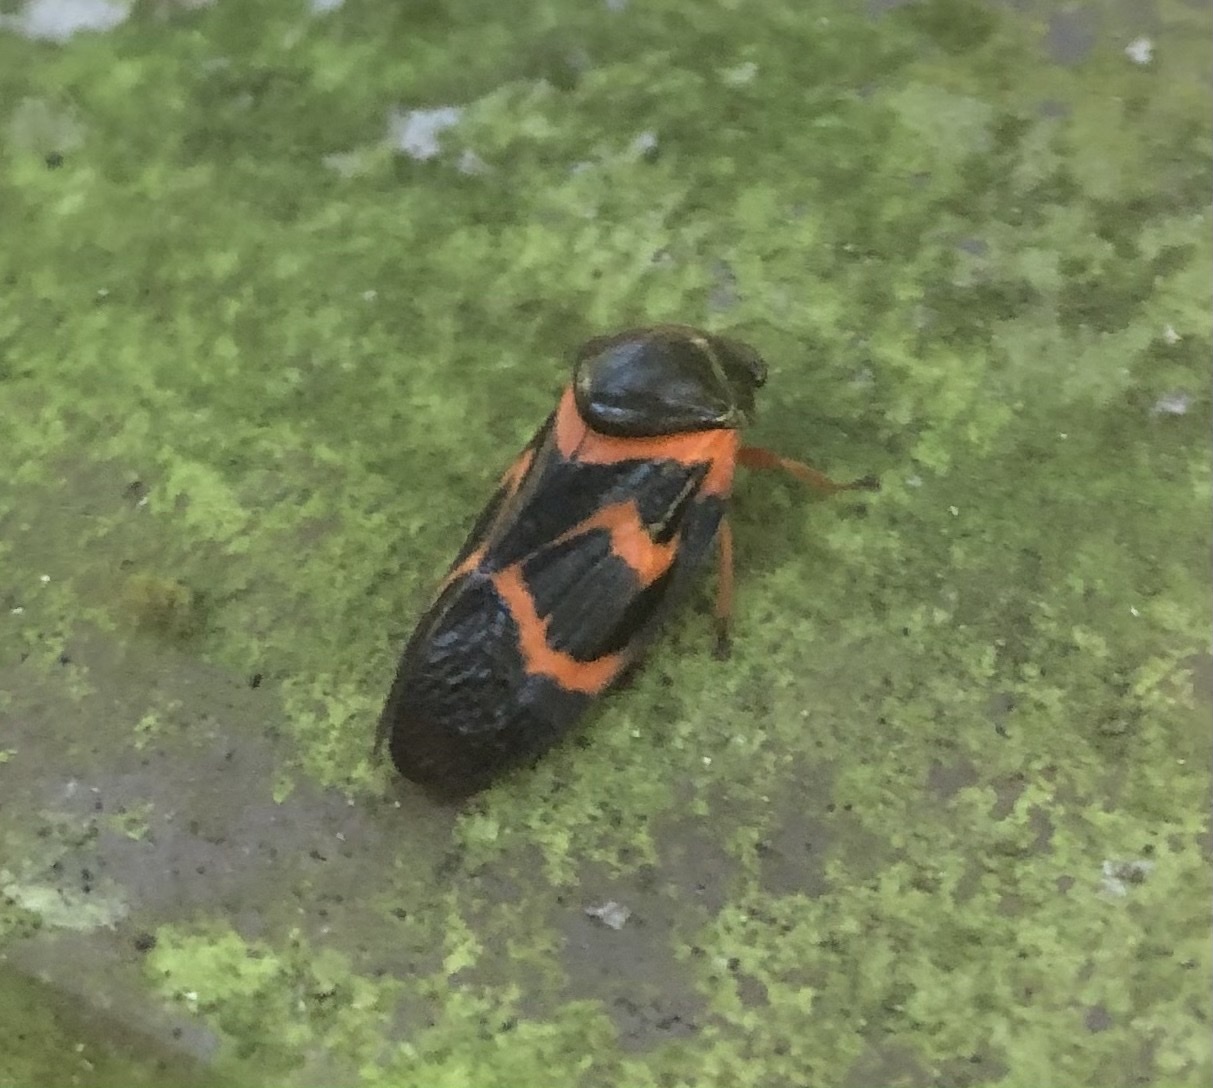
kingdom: Animalia
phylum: Arthropoda
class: Insecta
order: Hemiptera
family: Cercopidae
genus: Okiscarta
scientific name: Okiscarta uchidae
